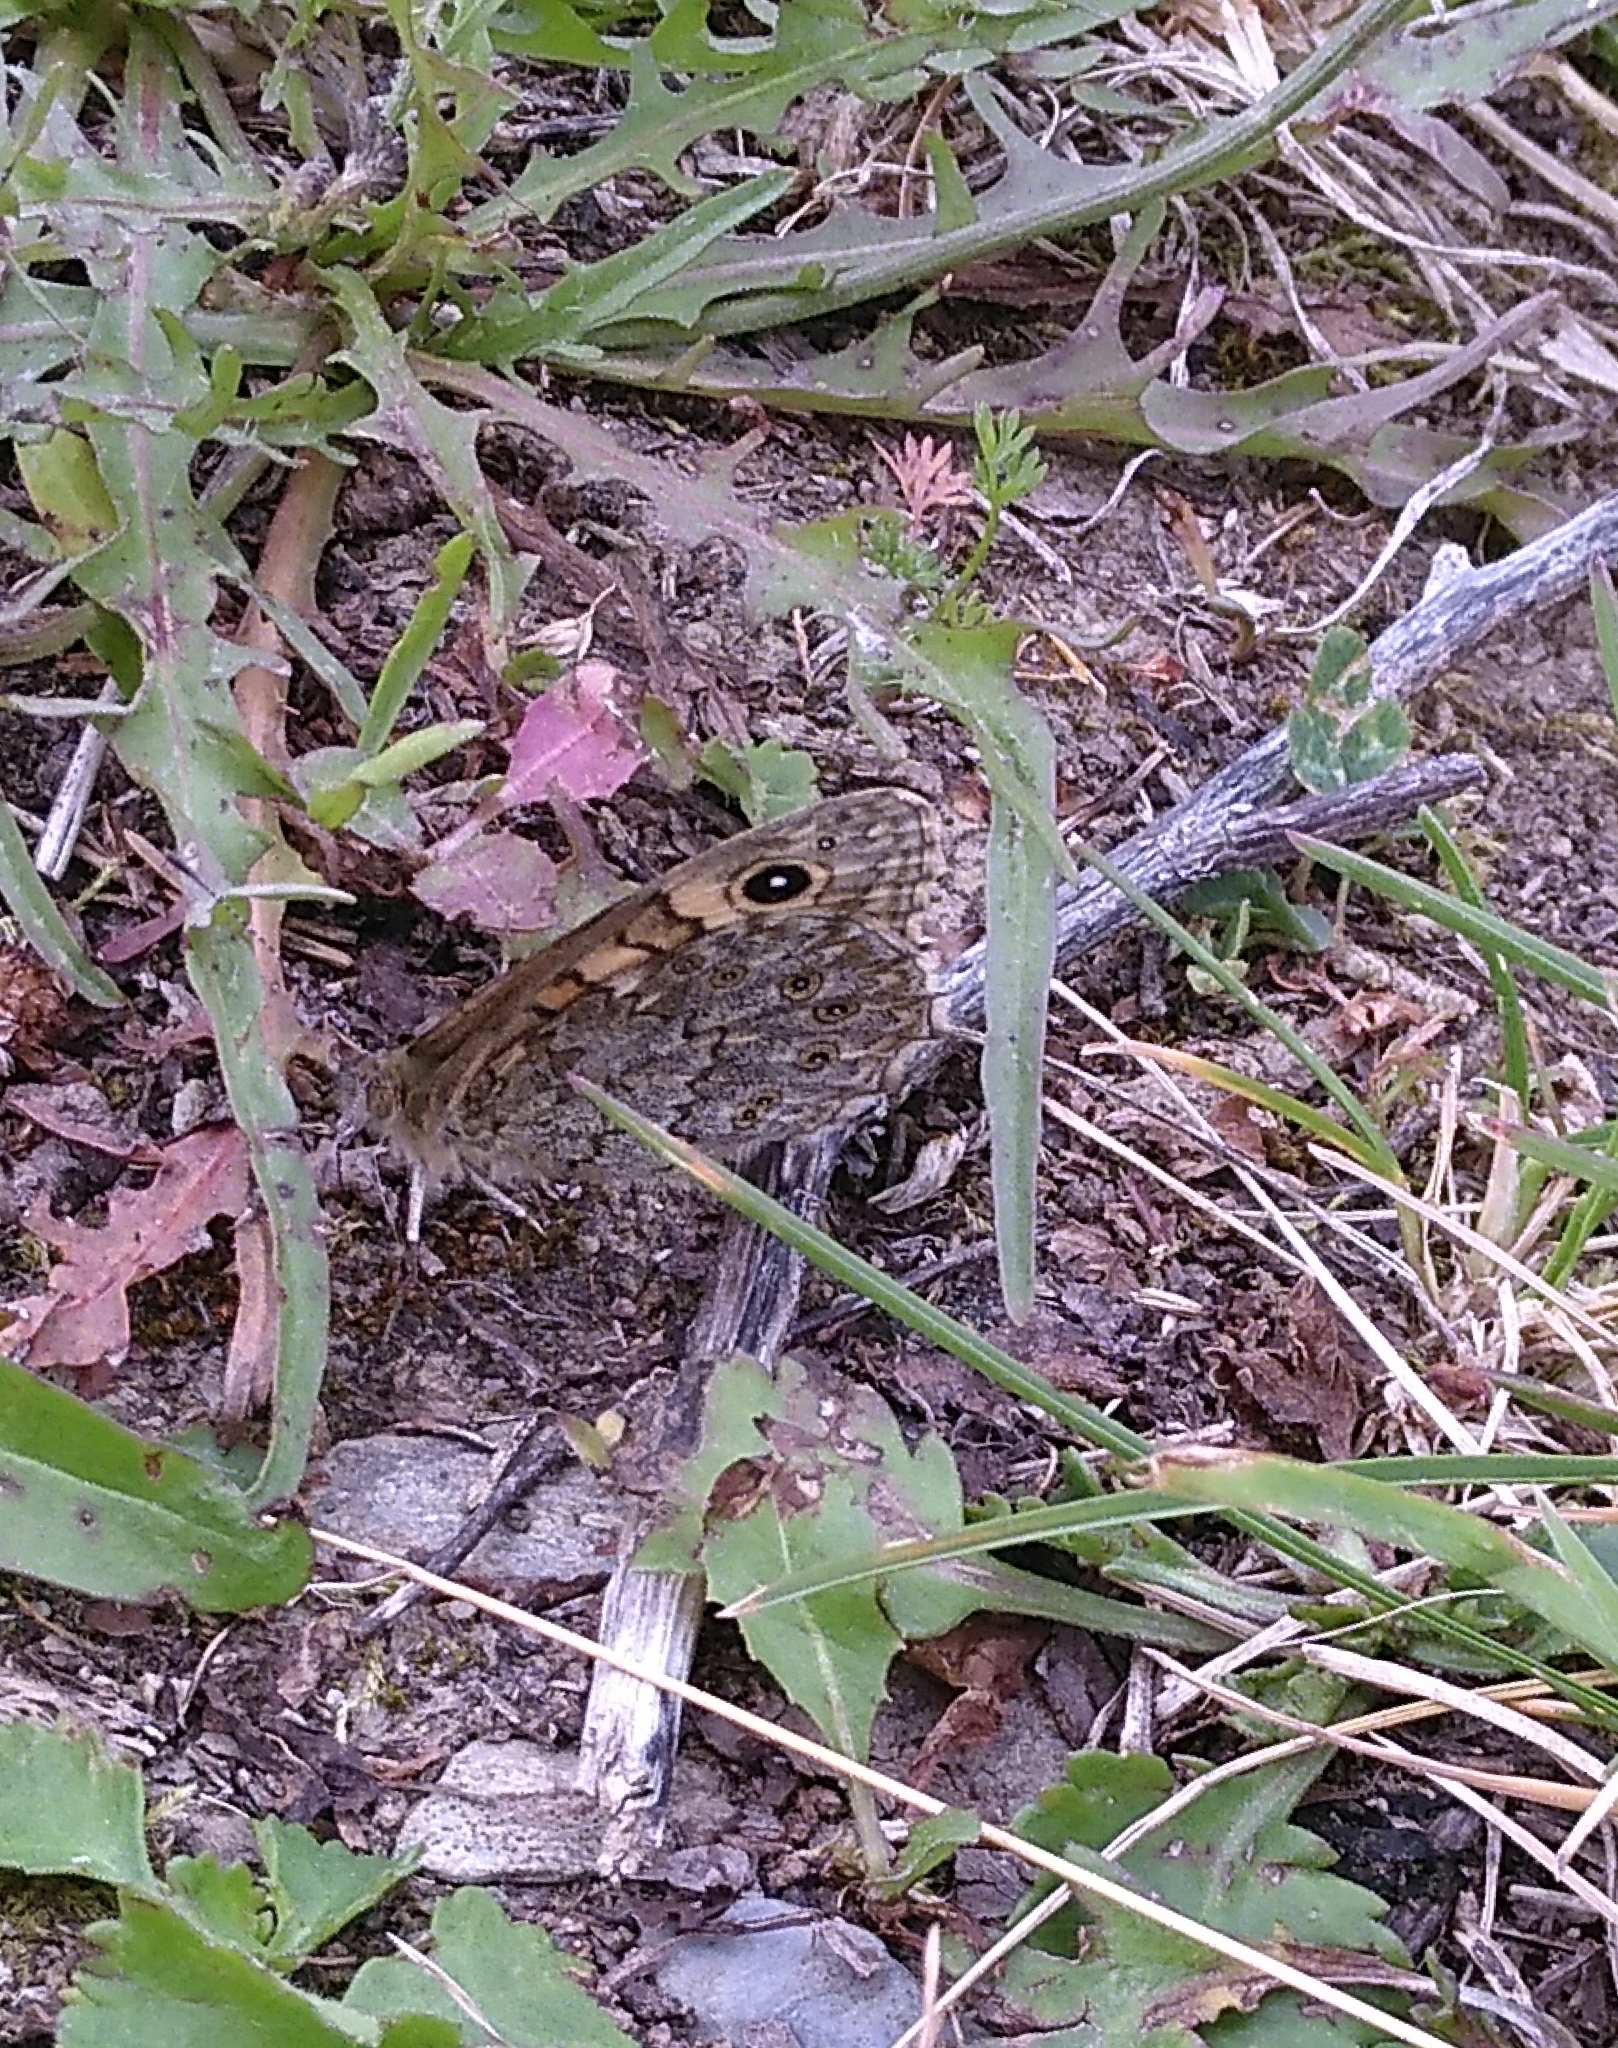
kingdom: Animalia
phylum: Arthropoda
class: Insecta
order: Lepidoptera
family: Nymphalidae
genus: Pararge
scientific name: Pararge Lasiommata megera
